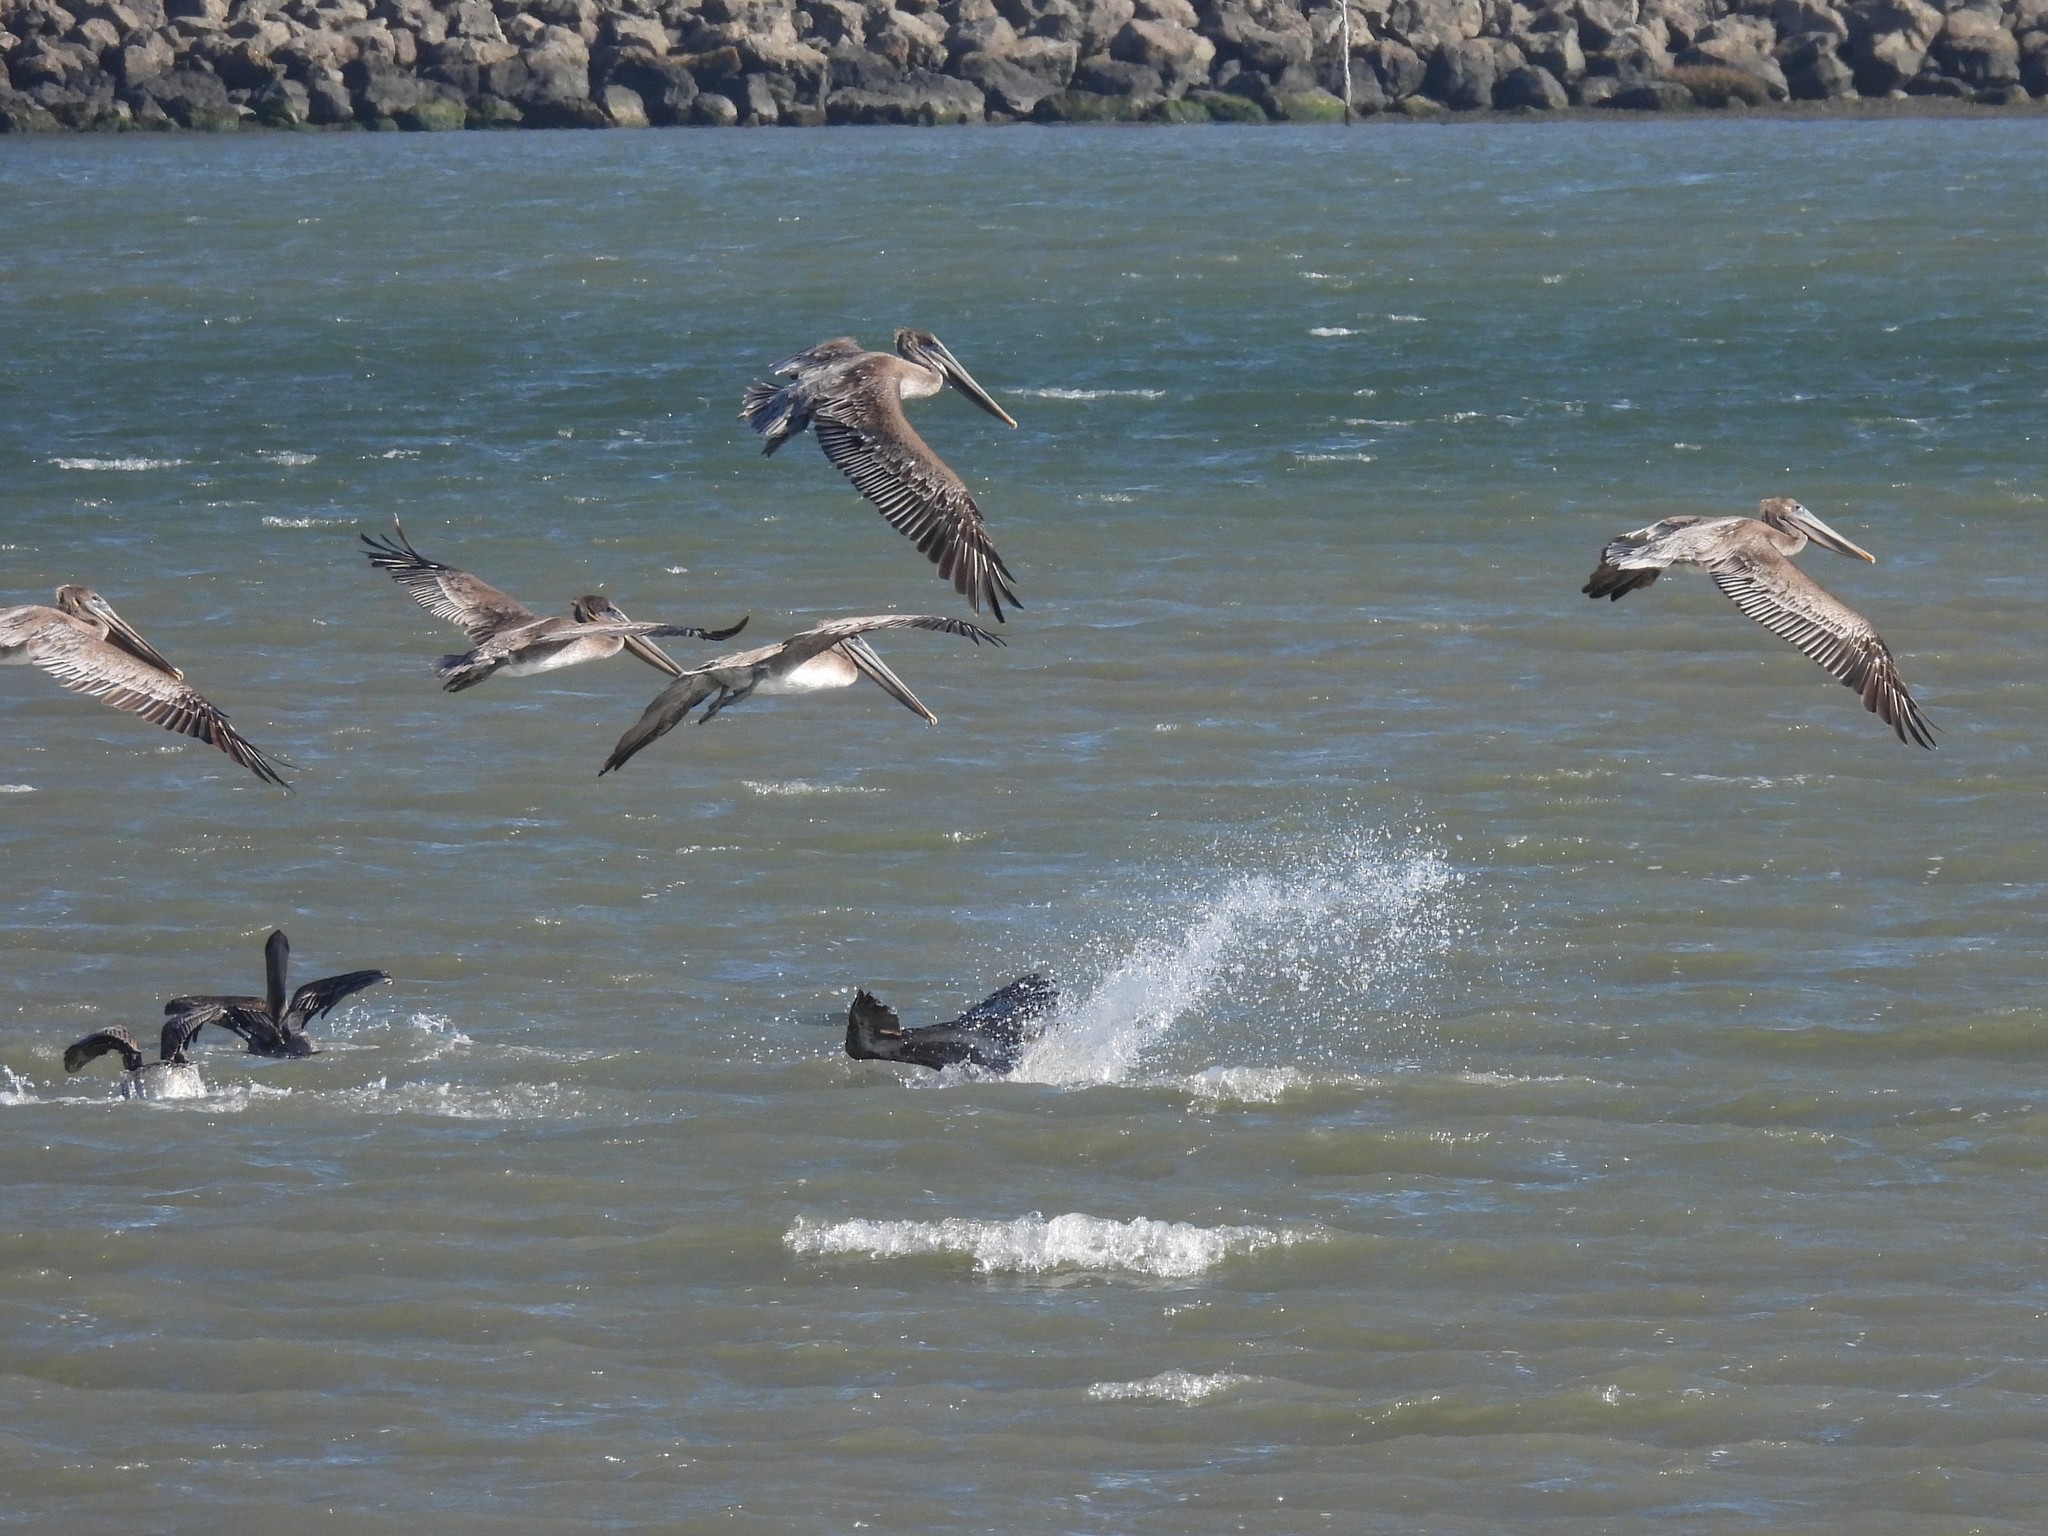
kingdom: Animalia
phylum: Chordata
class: Aves
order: Pelecaniformes
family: Pelecanidae
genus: Pelecanus
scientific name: Pelecanus occidentalis
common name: Brown pelican
